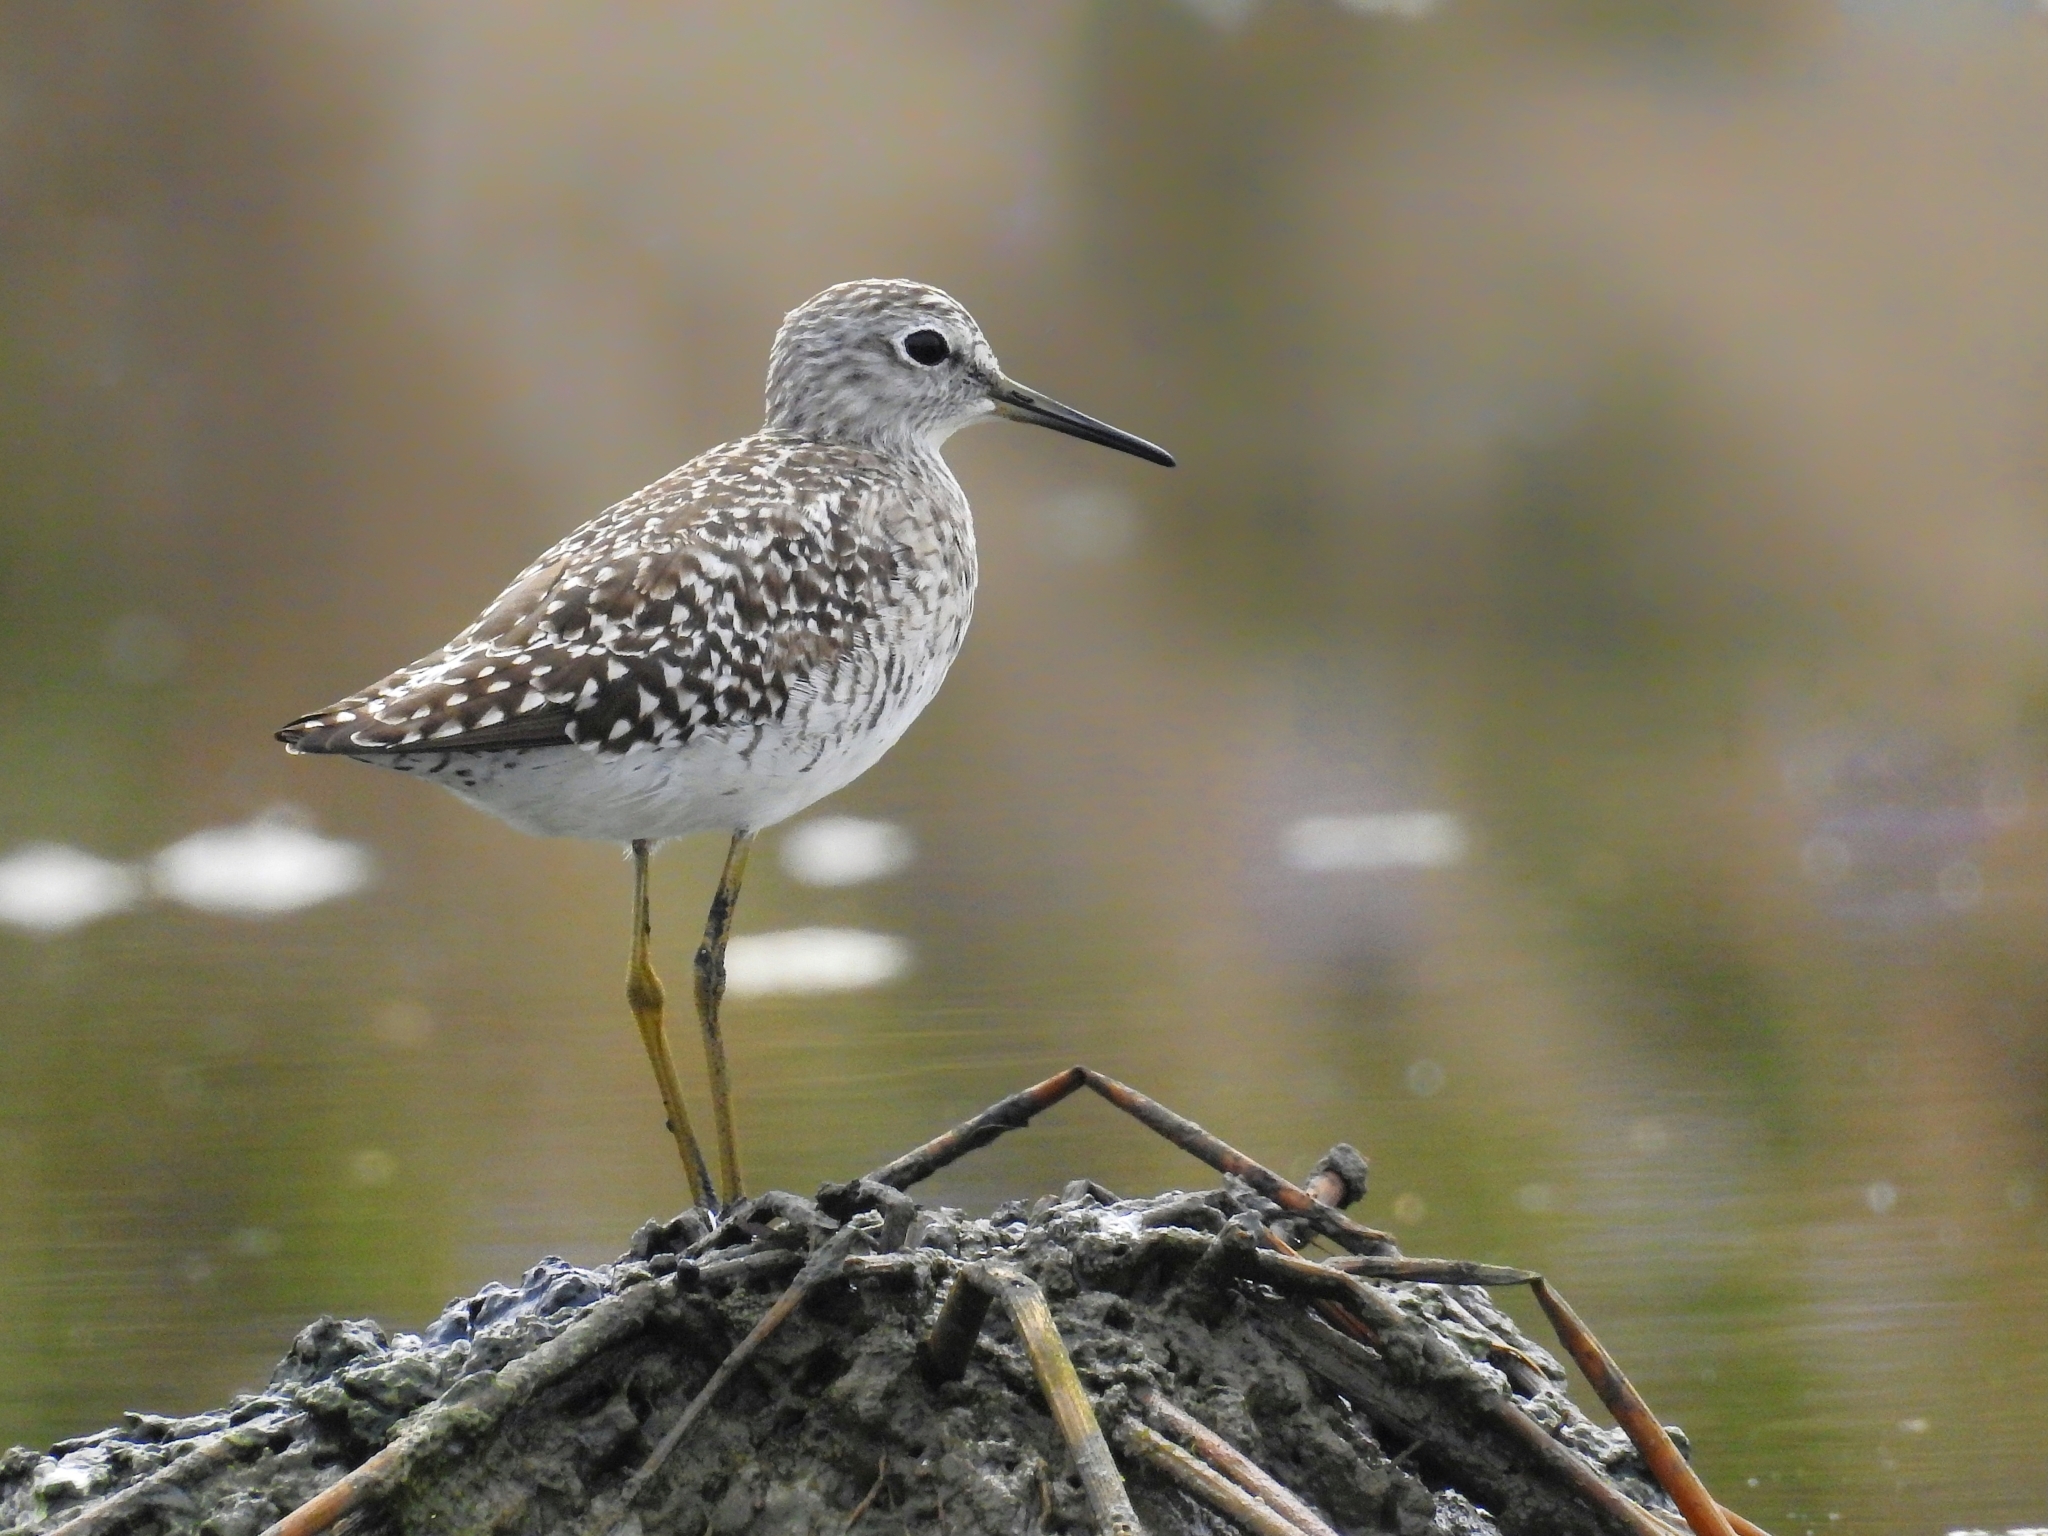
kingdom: Animalia
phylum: Chordata
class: Aves
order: Charadriiformes
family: Scolopacidae
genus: Tringa
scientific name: Tringa glareola
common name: Wood sandpiper
